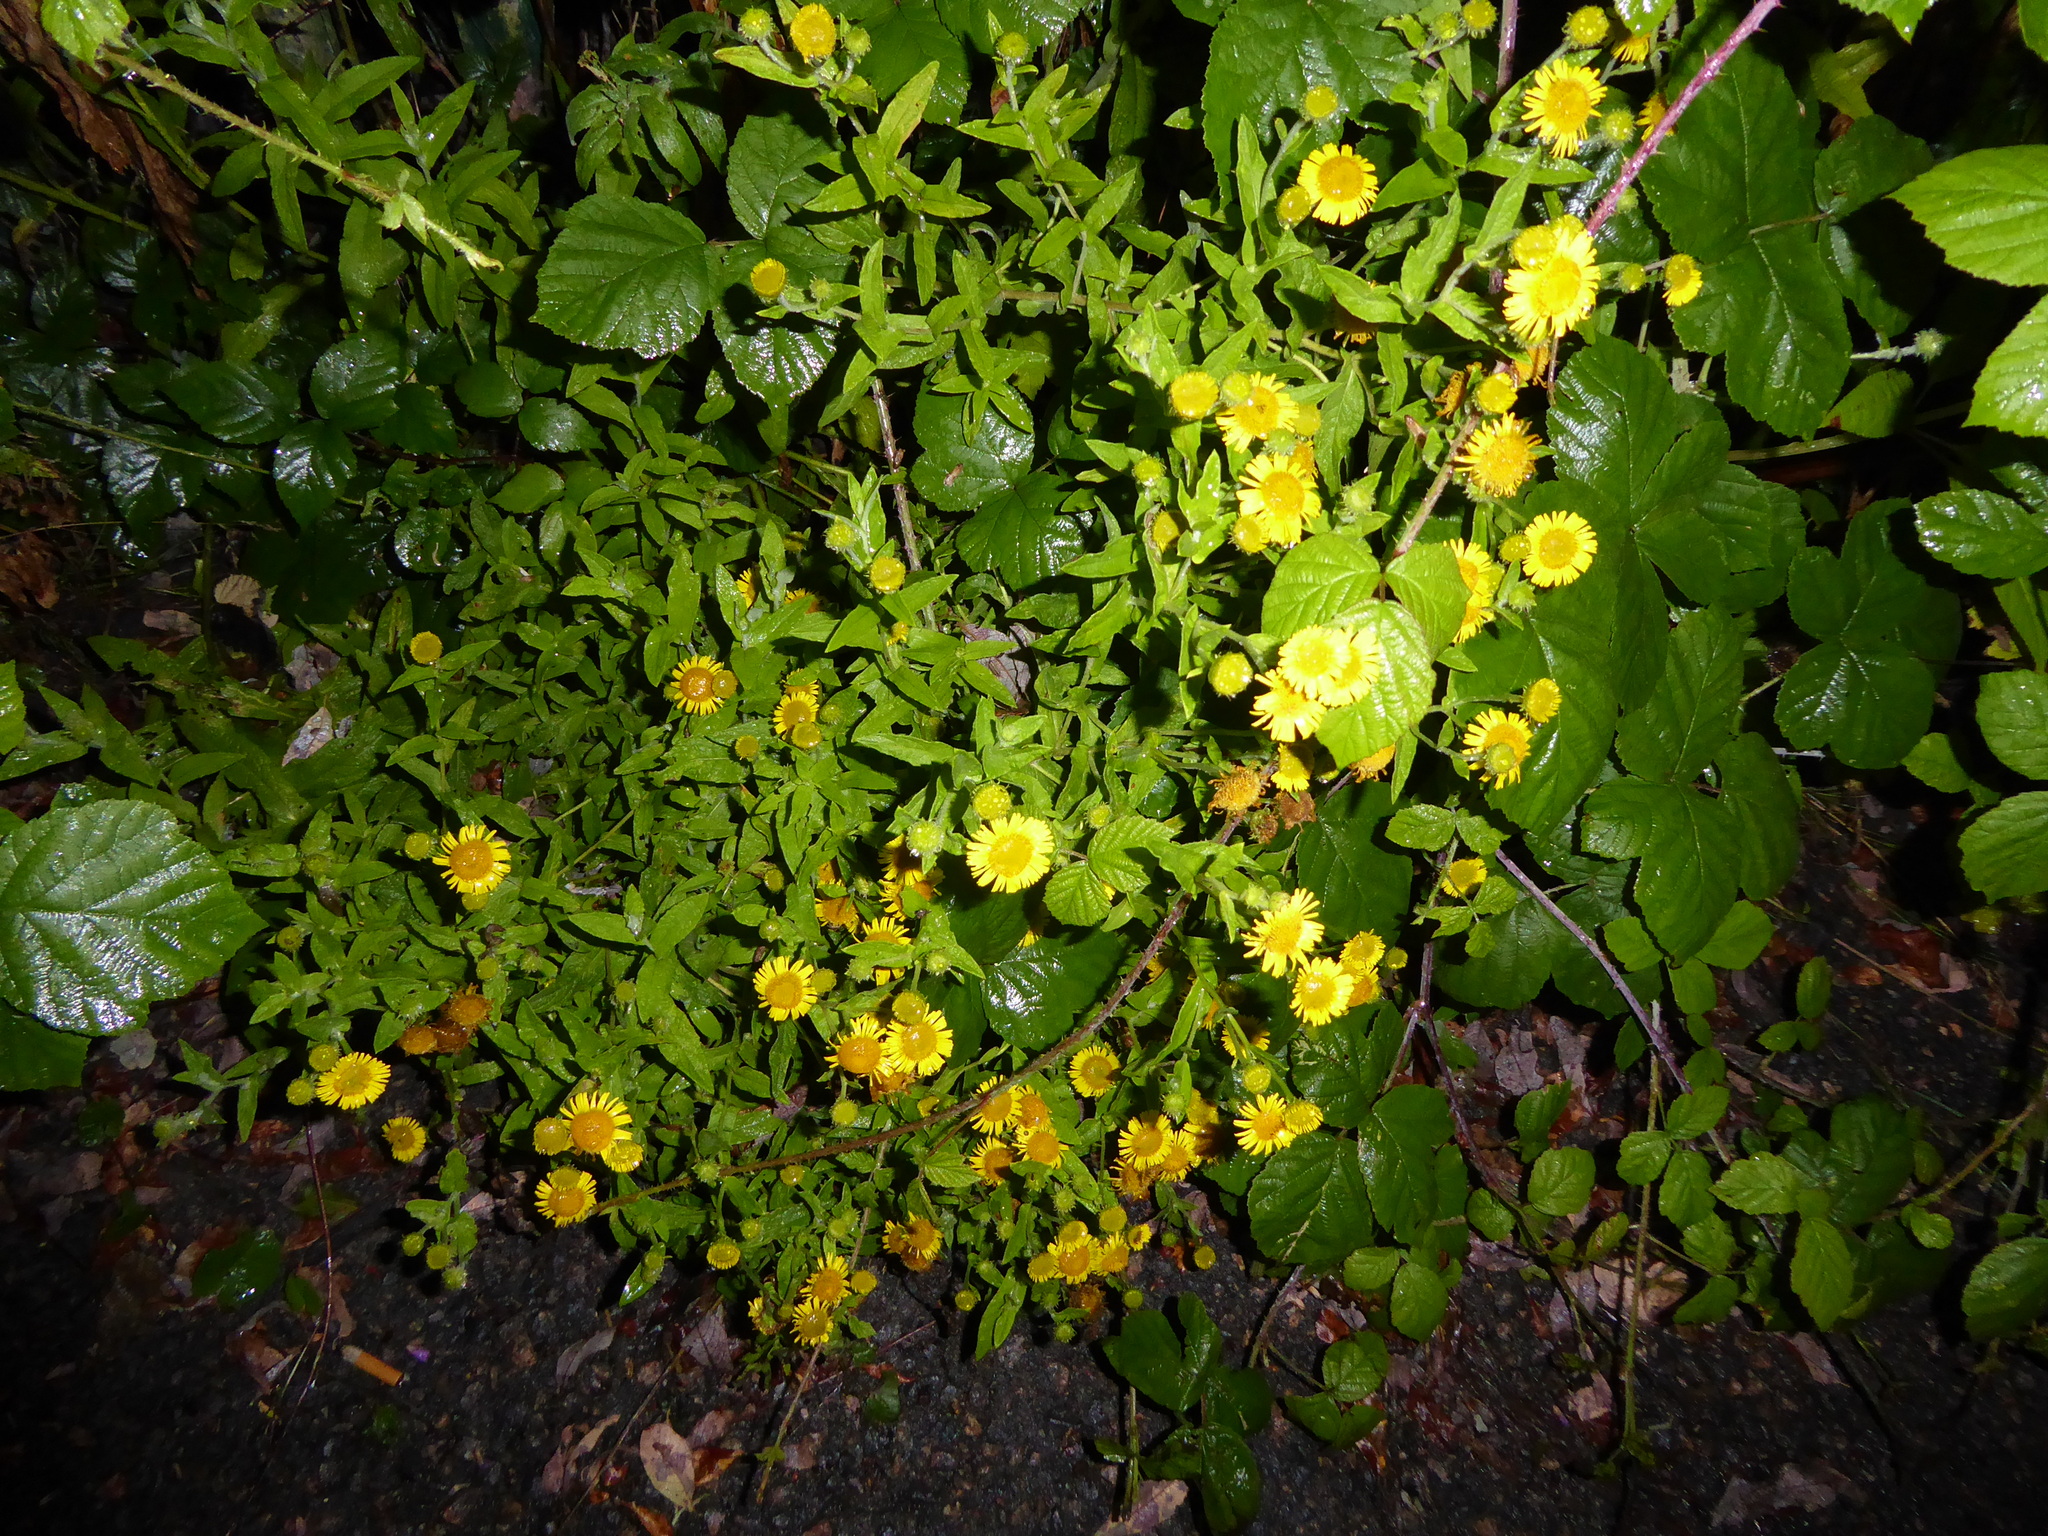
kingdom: Plantae
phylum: Tracheophyta
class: Magnoliopsida
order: Asterales
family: Asteraceae
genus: Pulicaria
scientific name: Pulicaria dysenterica
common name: Common fleabane
